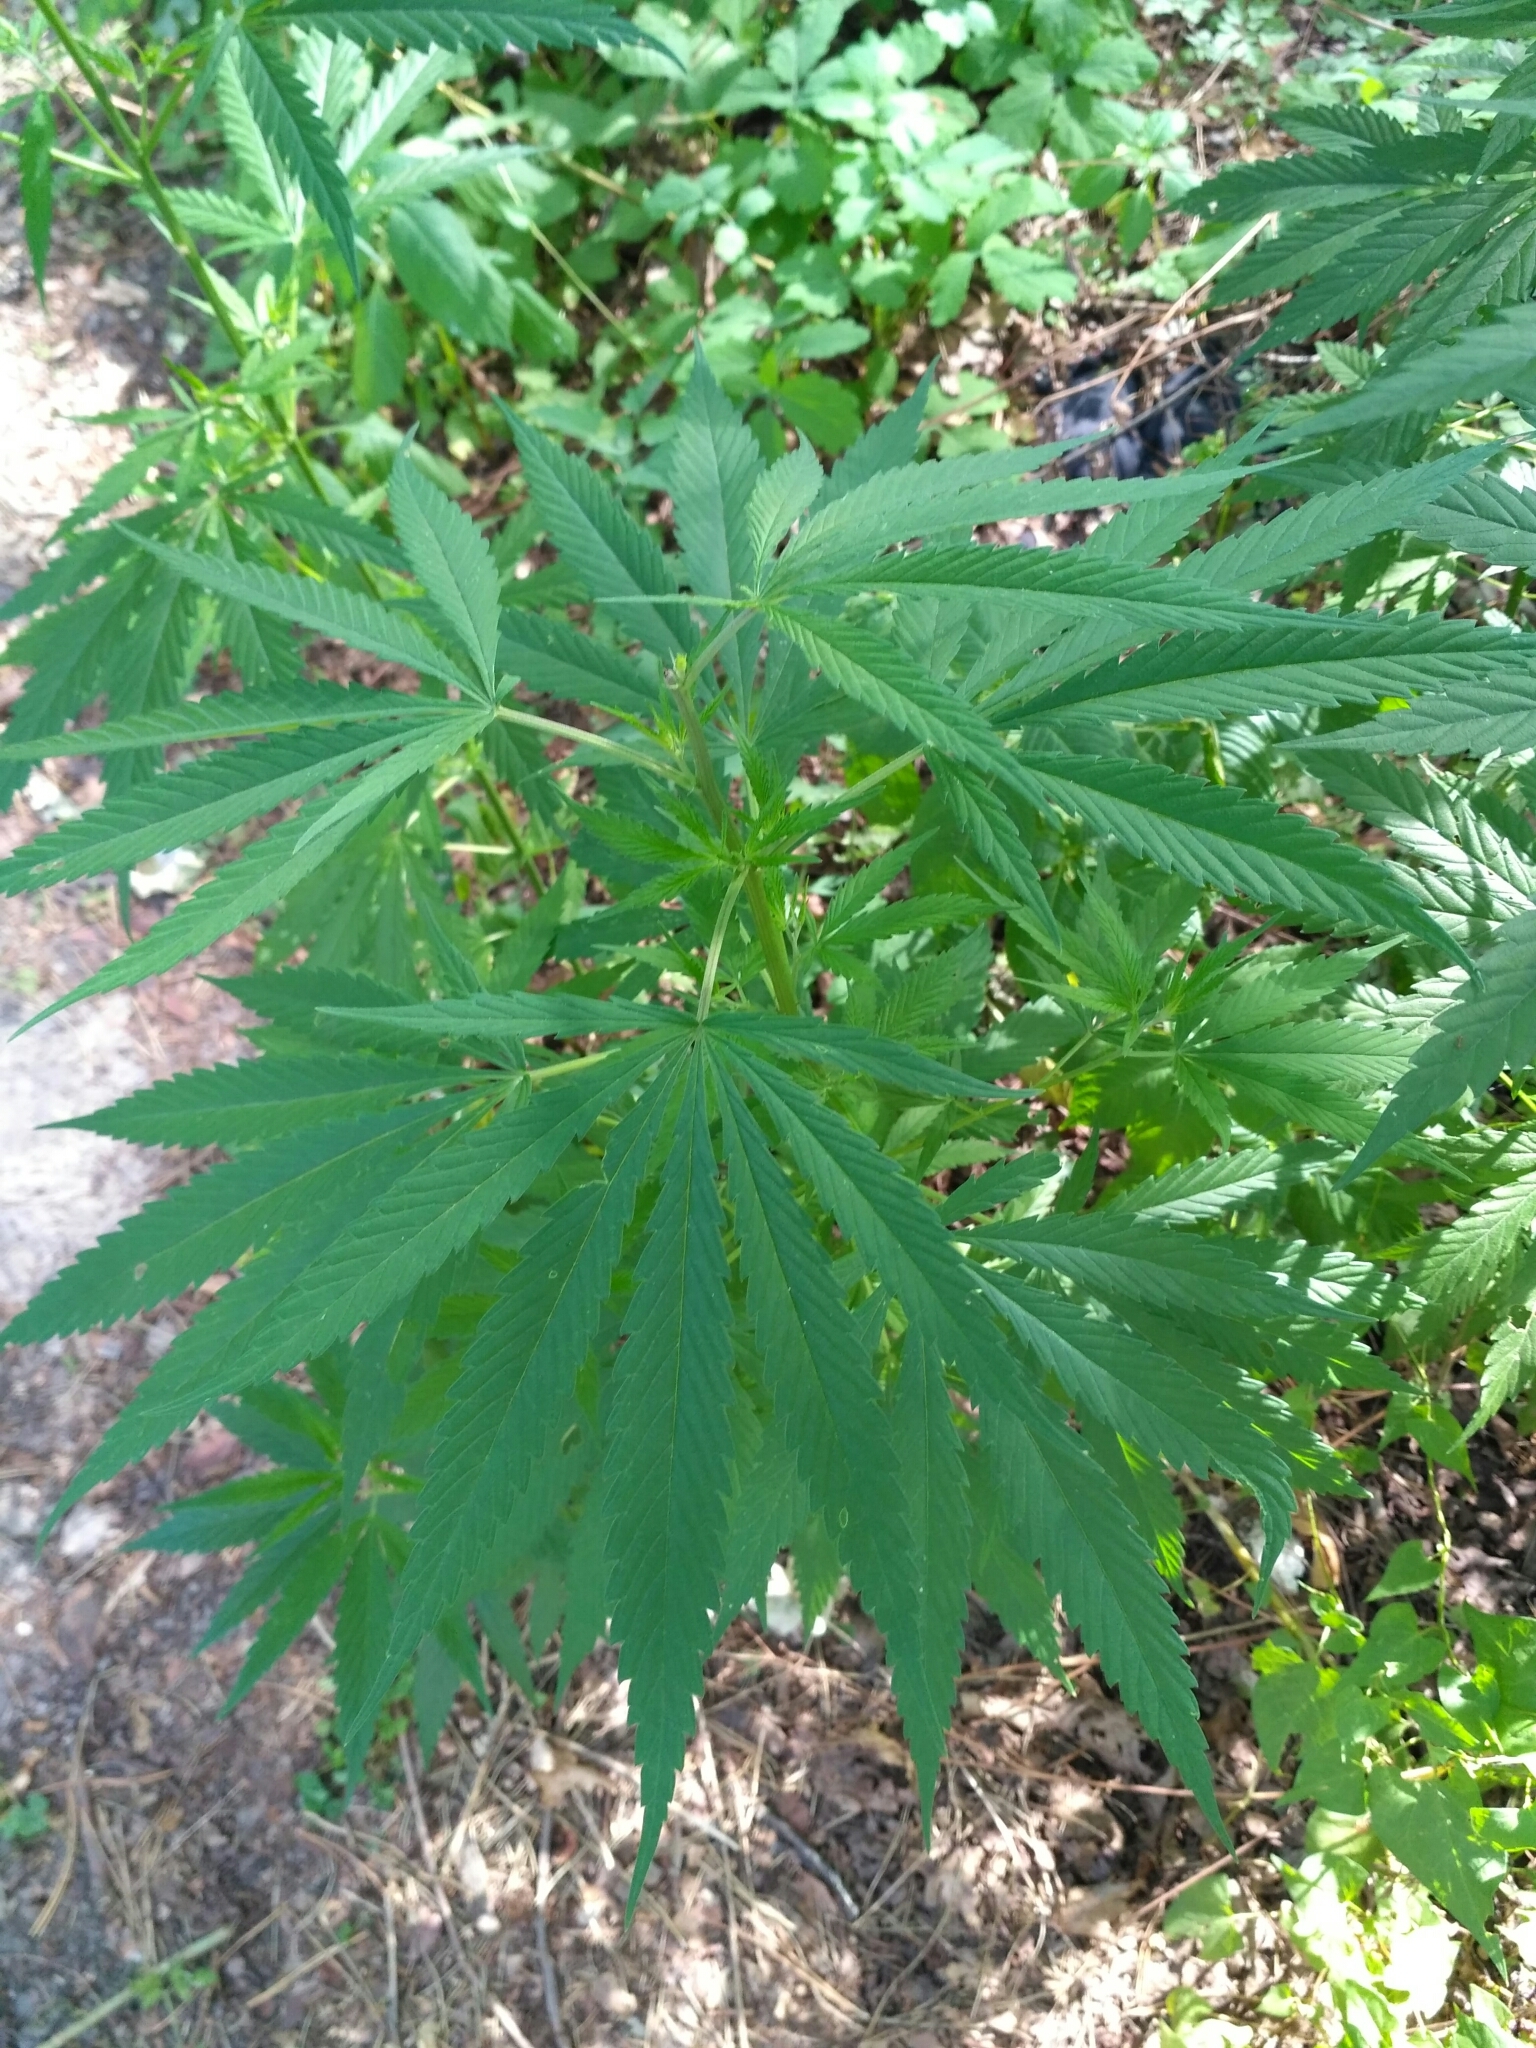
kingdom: Plantae
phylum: Tracheophyta
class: Magnoliopsida
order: Rosales
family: Cannabaceae
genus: Cannabis
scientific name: Cannabis sativa
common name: Hemp
